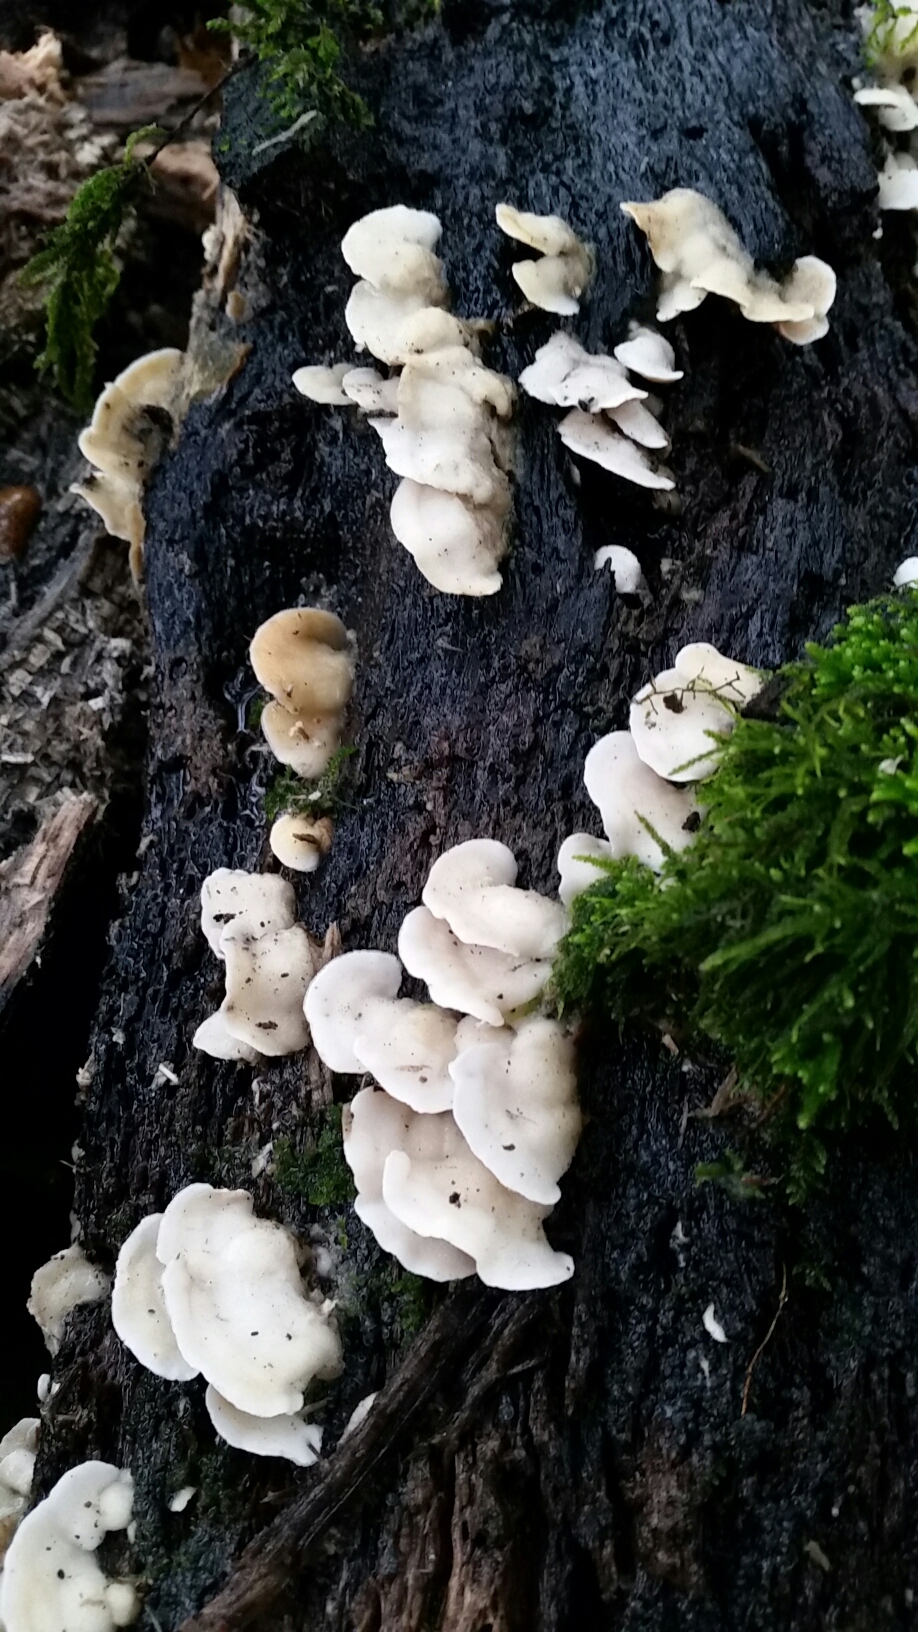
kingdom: Fungi
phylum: Basidiomycota
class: Agaricomycetes
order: Polyporales
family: Irpicaceae
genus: Vitreoporus
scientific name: Vitreoporus dichrous
